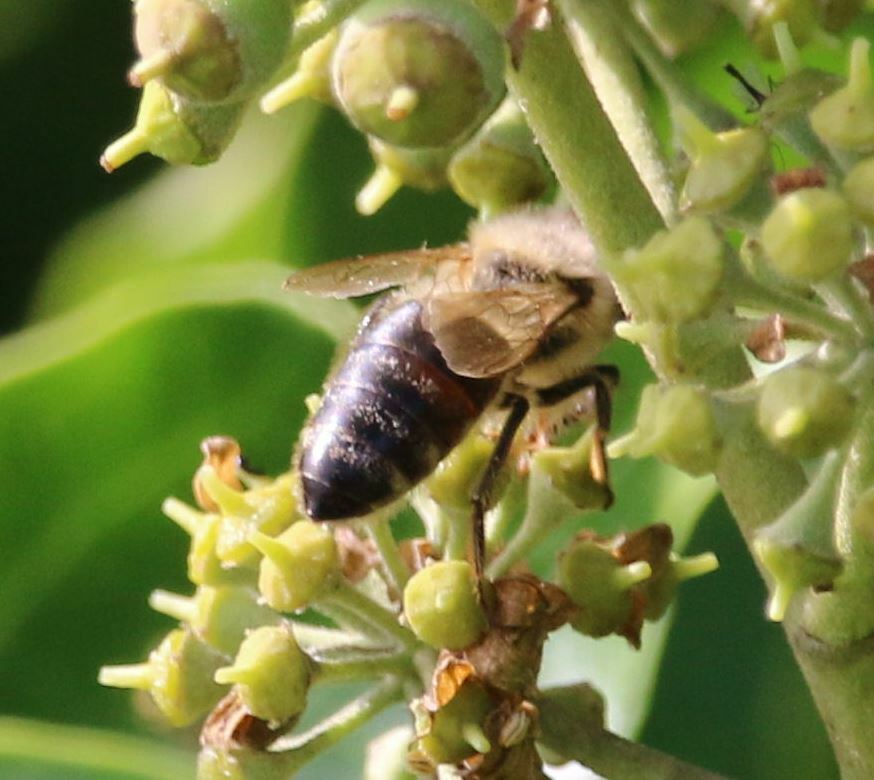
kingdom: Animalia
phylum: Arthropoda
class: Insecta
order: Hymenoptera
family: Apidae
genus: Apis
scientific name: Apis mellifera
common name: Honey bee
